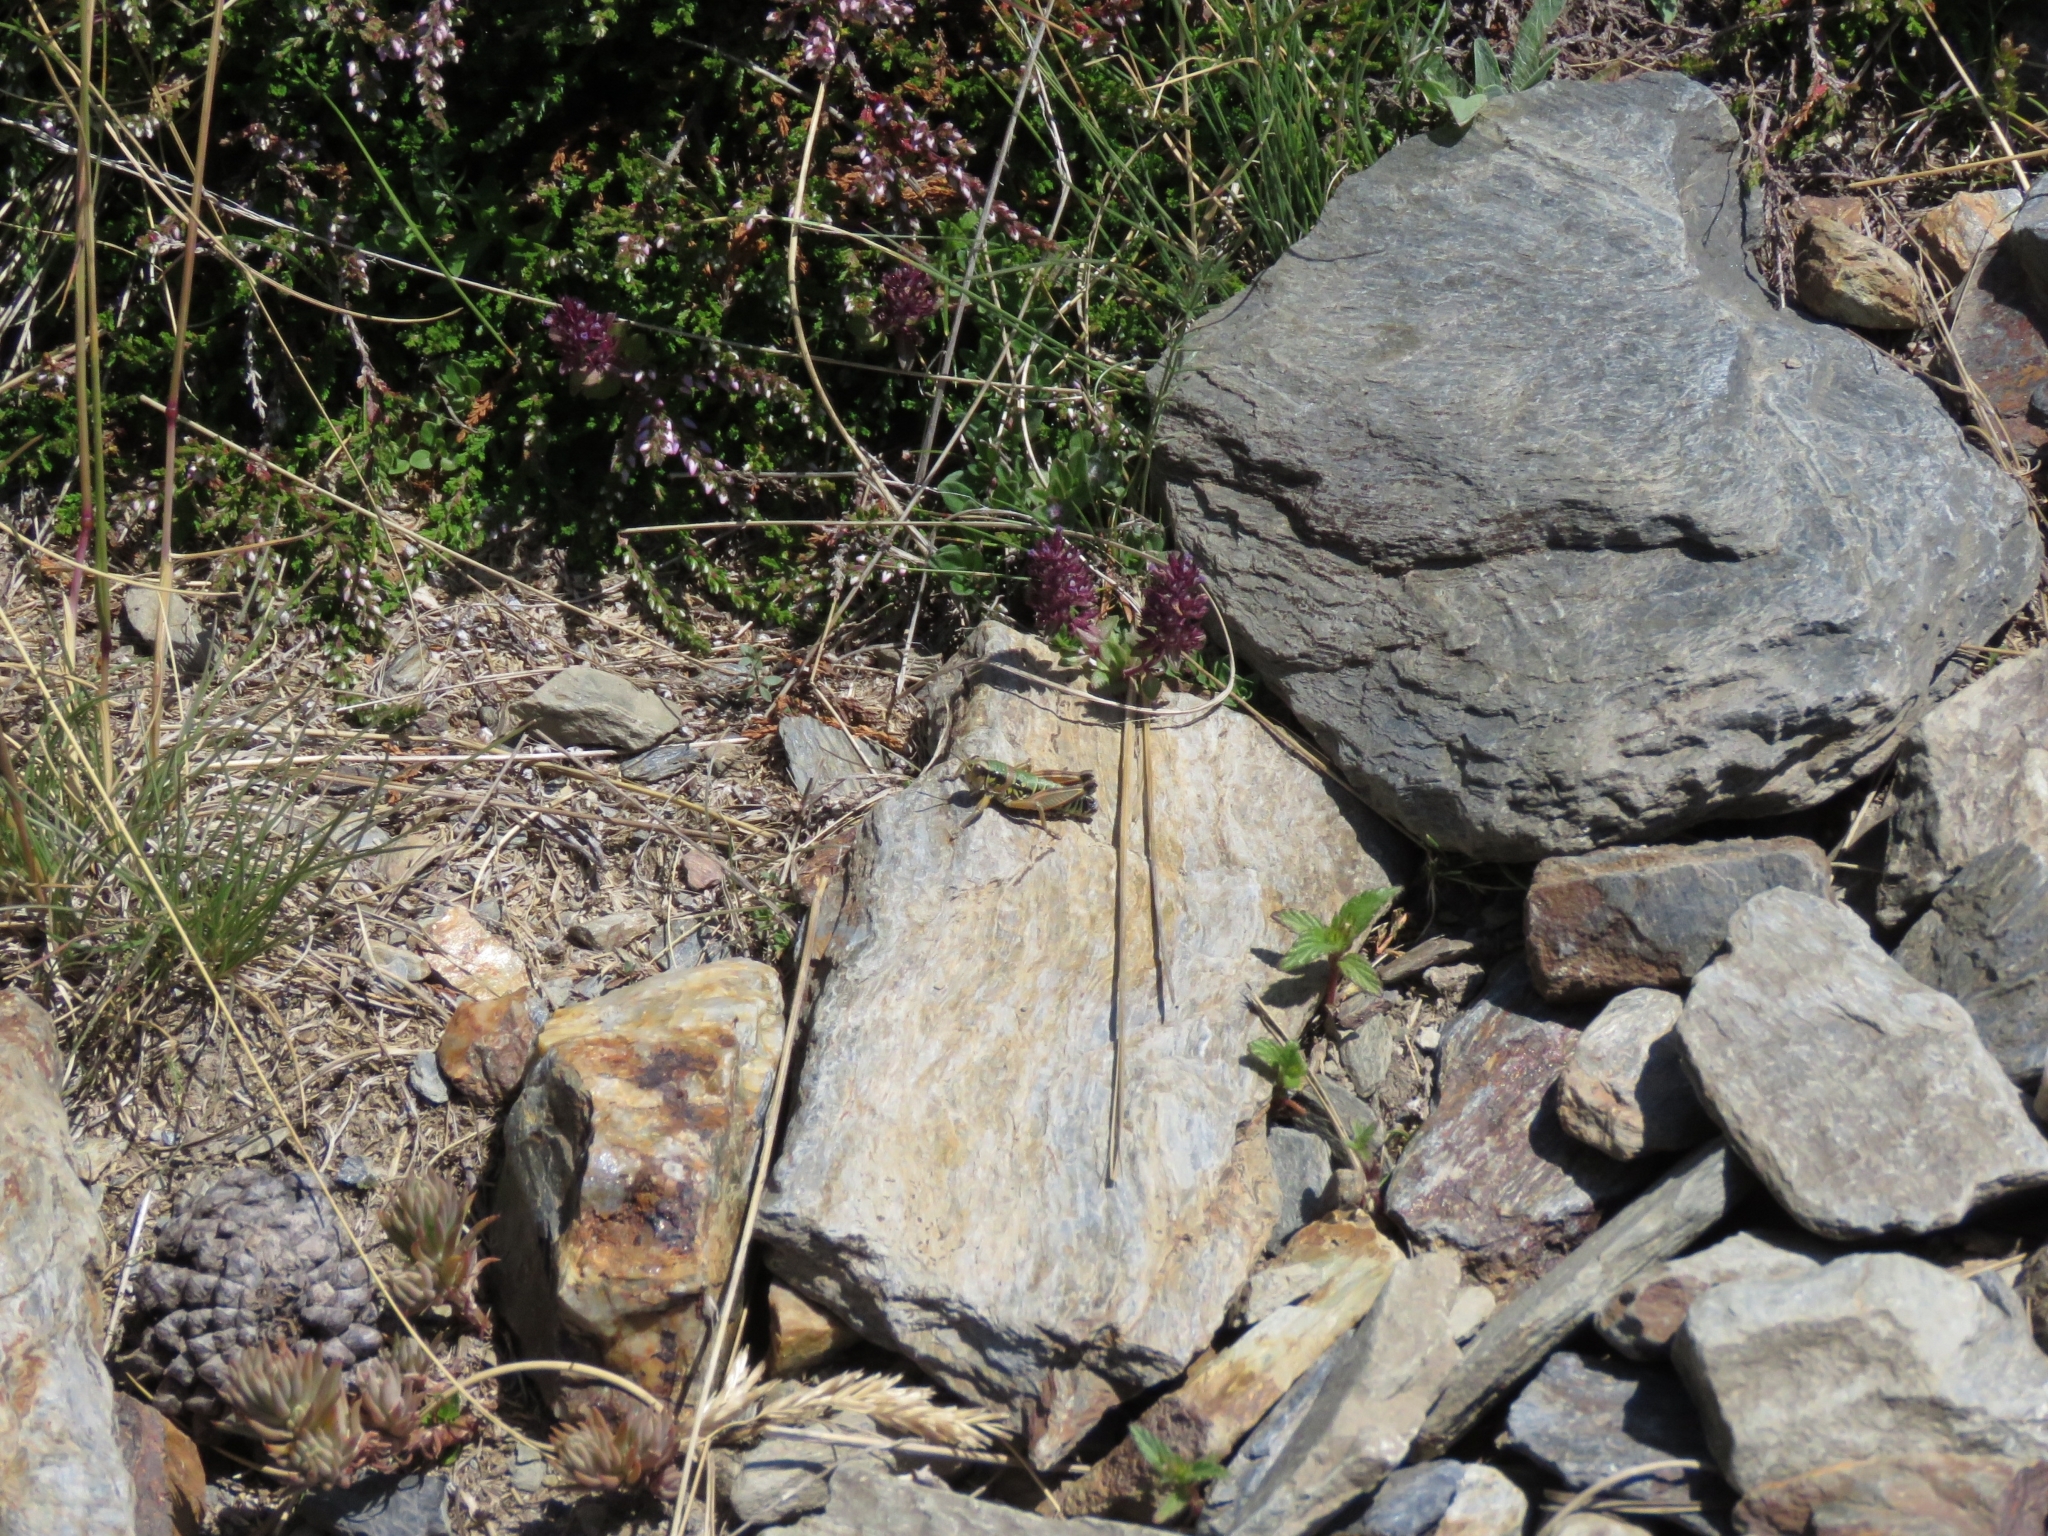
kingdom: Animalia
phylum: Arthropoda
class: Insecta
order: Orthoptera
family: Acrididae
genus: Miramella
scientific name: Miramella alpina
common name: Green mountain grasshopper
